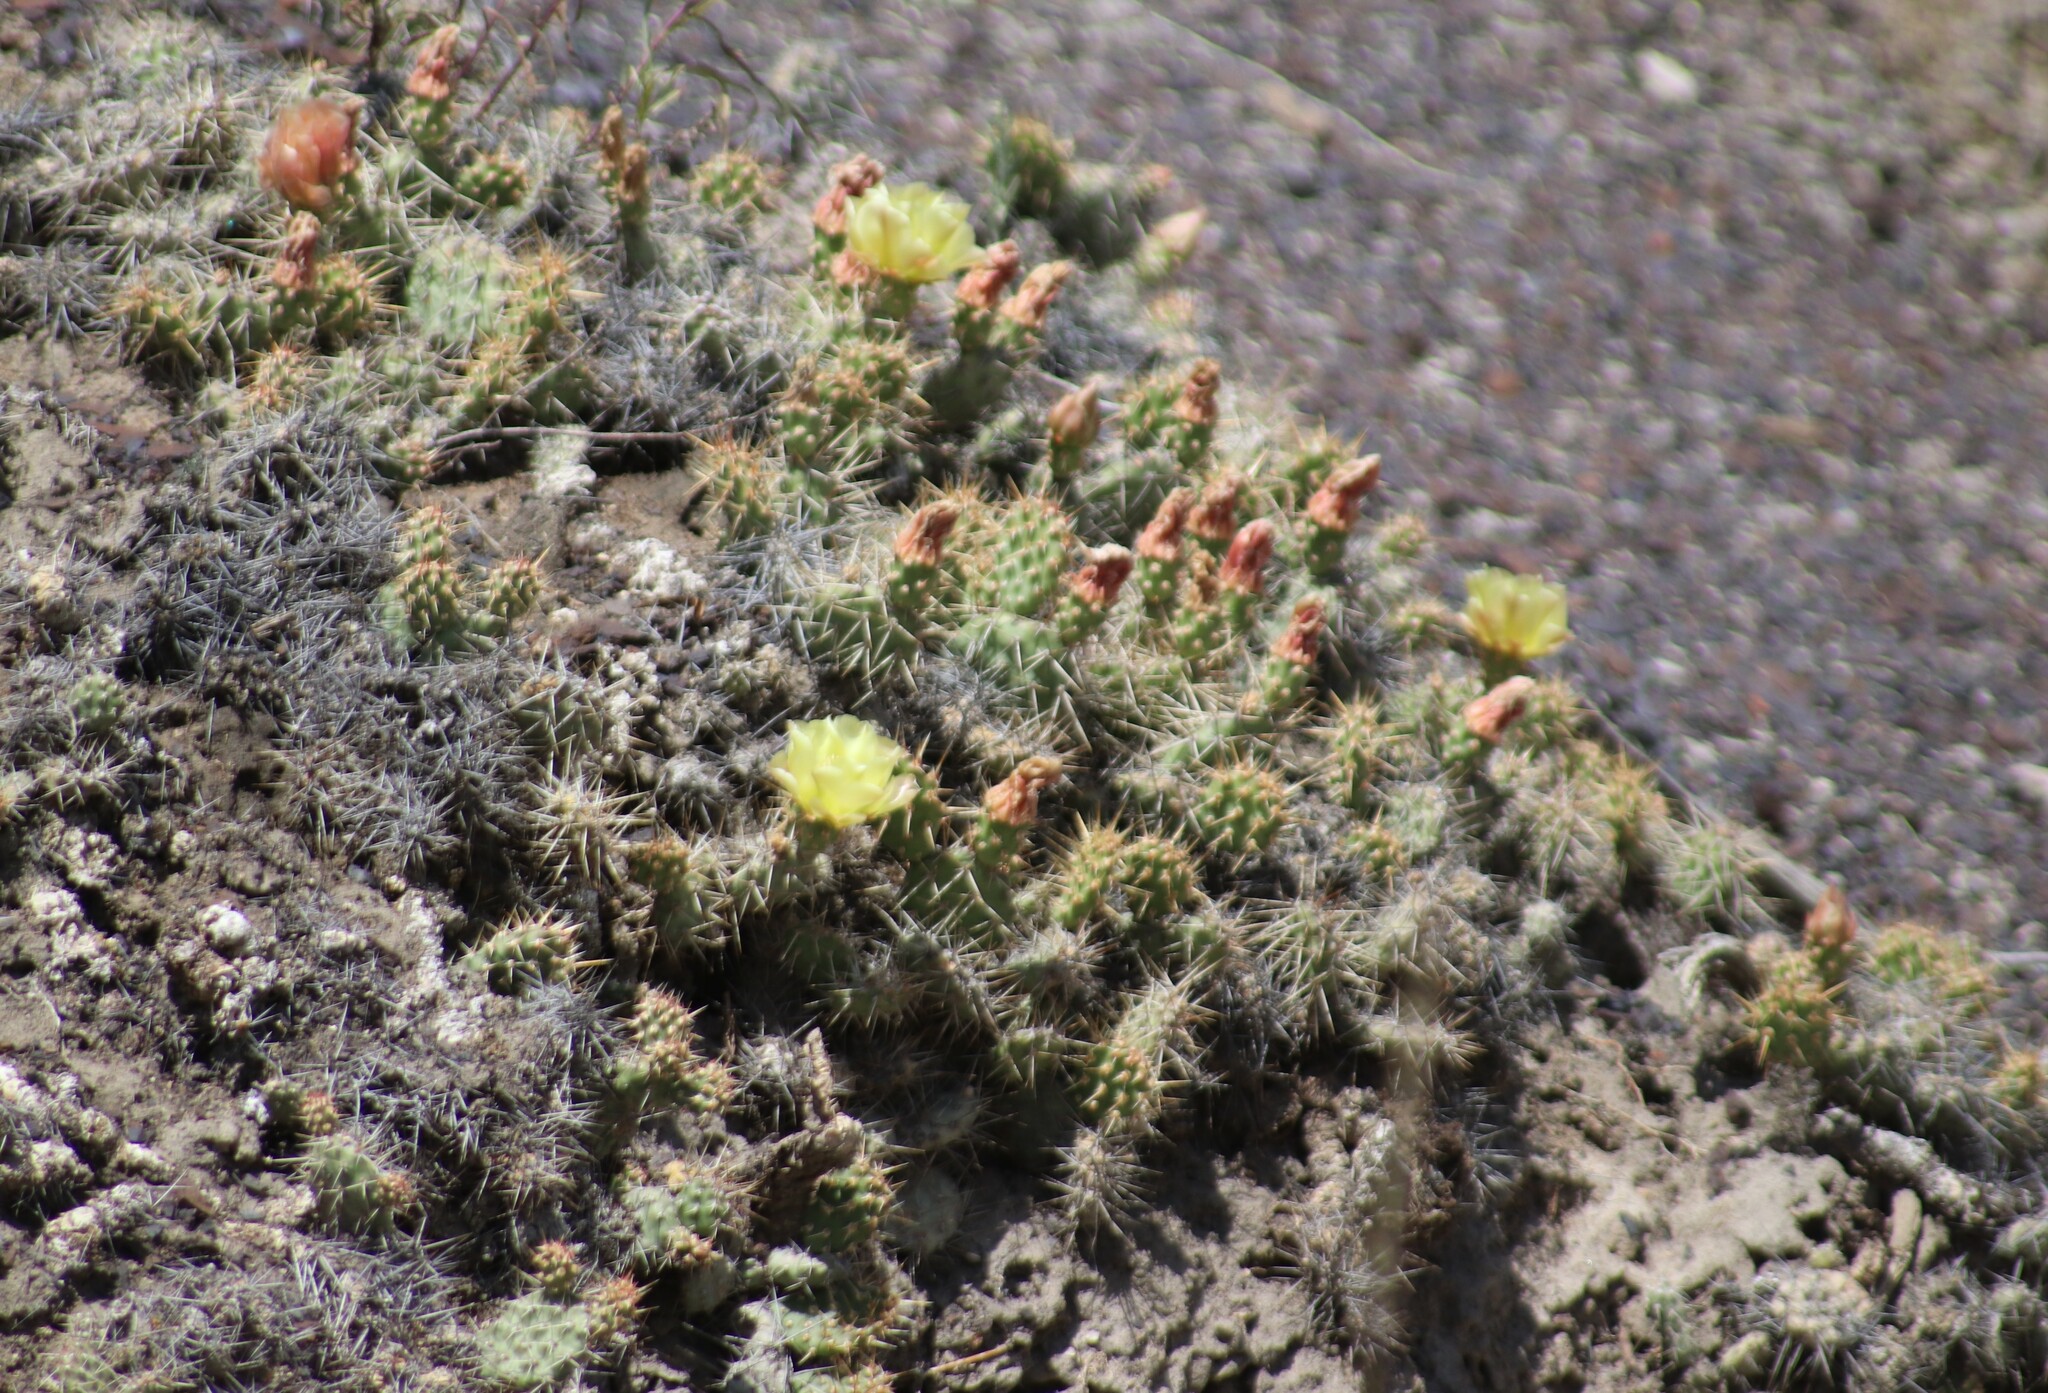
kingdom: Plantae
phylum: Tracheophyta
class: Magnoliopsida
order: Caryophyllales
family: Cactaceae
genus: Opuntia
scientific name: Opuntia fragilis
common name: Brittle cactus
